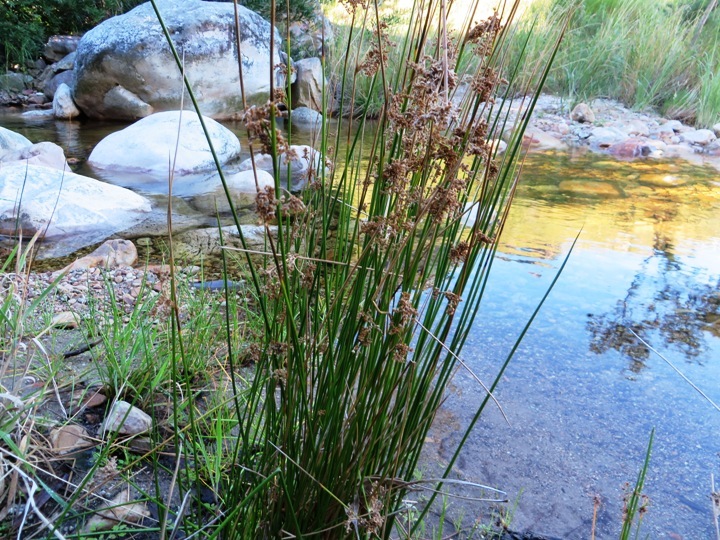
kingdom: Plantae
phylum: Tracheophyta
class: Liliopsida
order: Poales
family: Juncaceae
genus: Juncus
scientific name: Juncus effusus
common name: Soft rush
